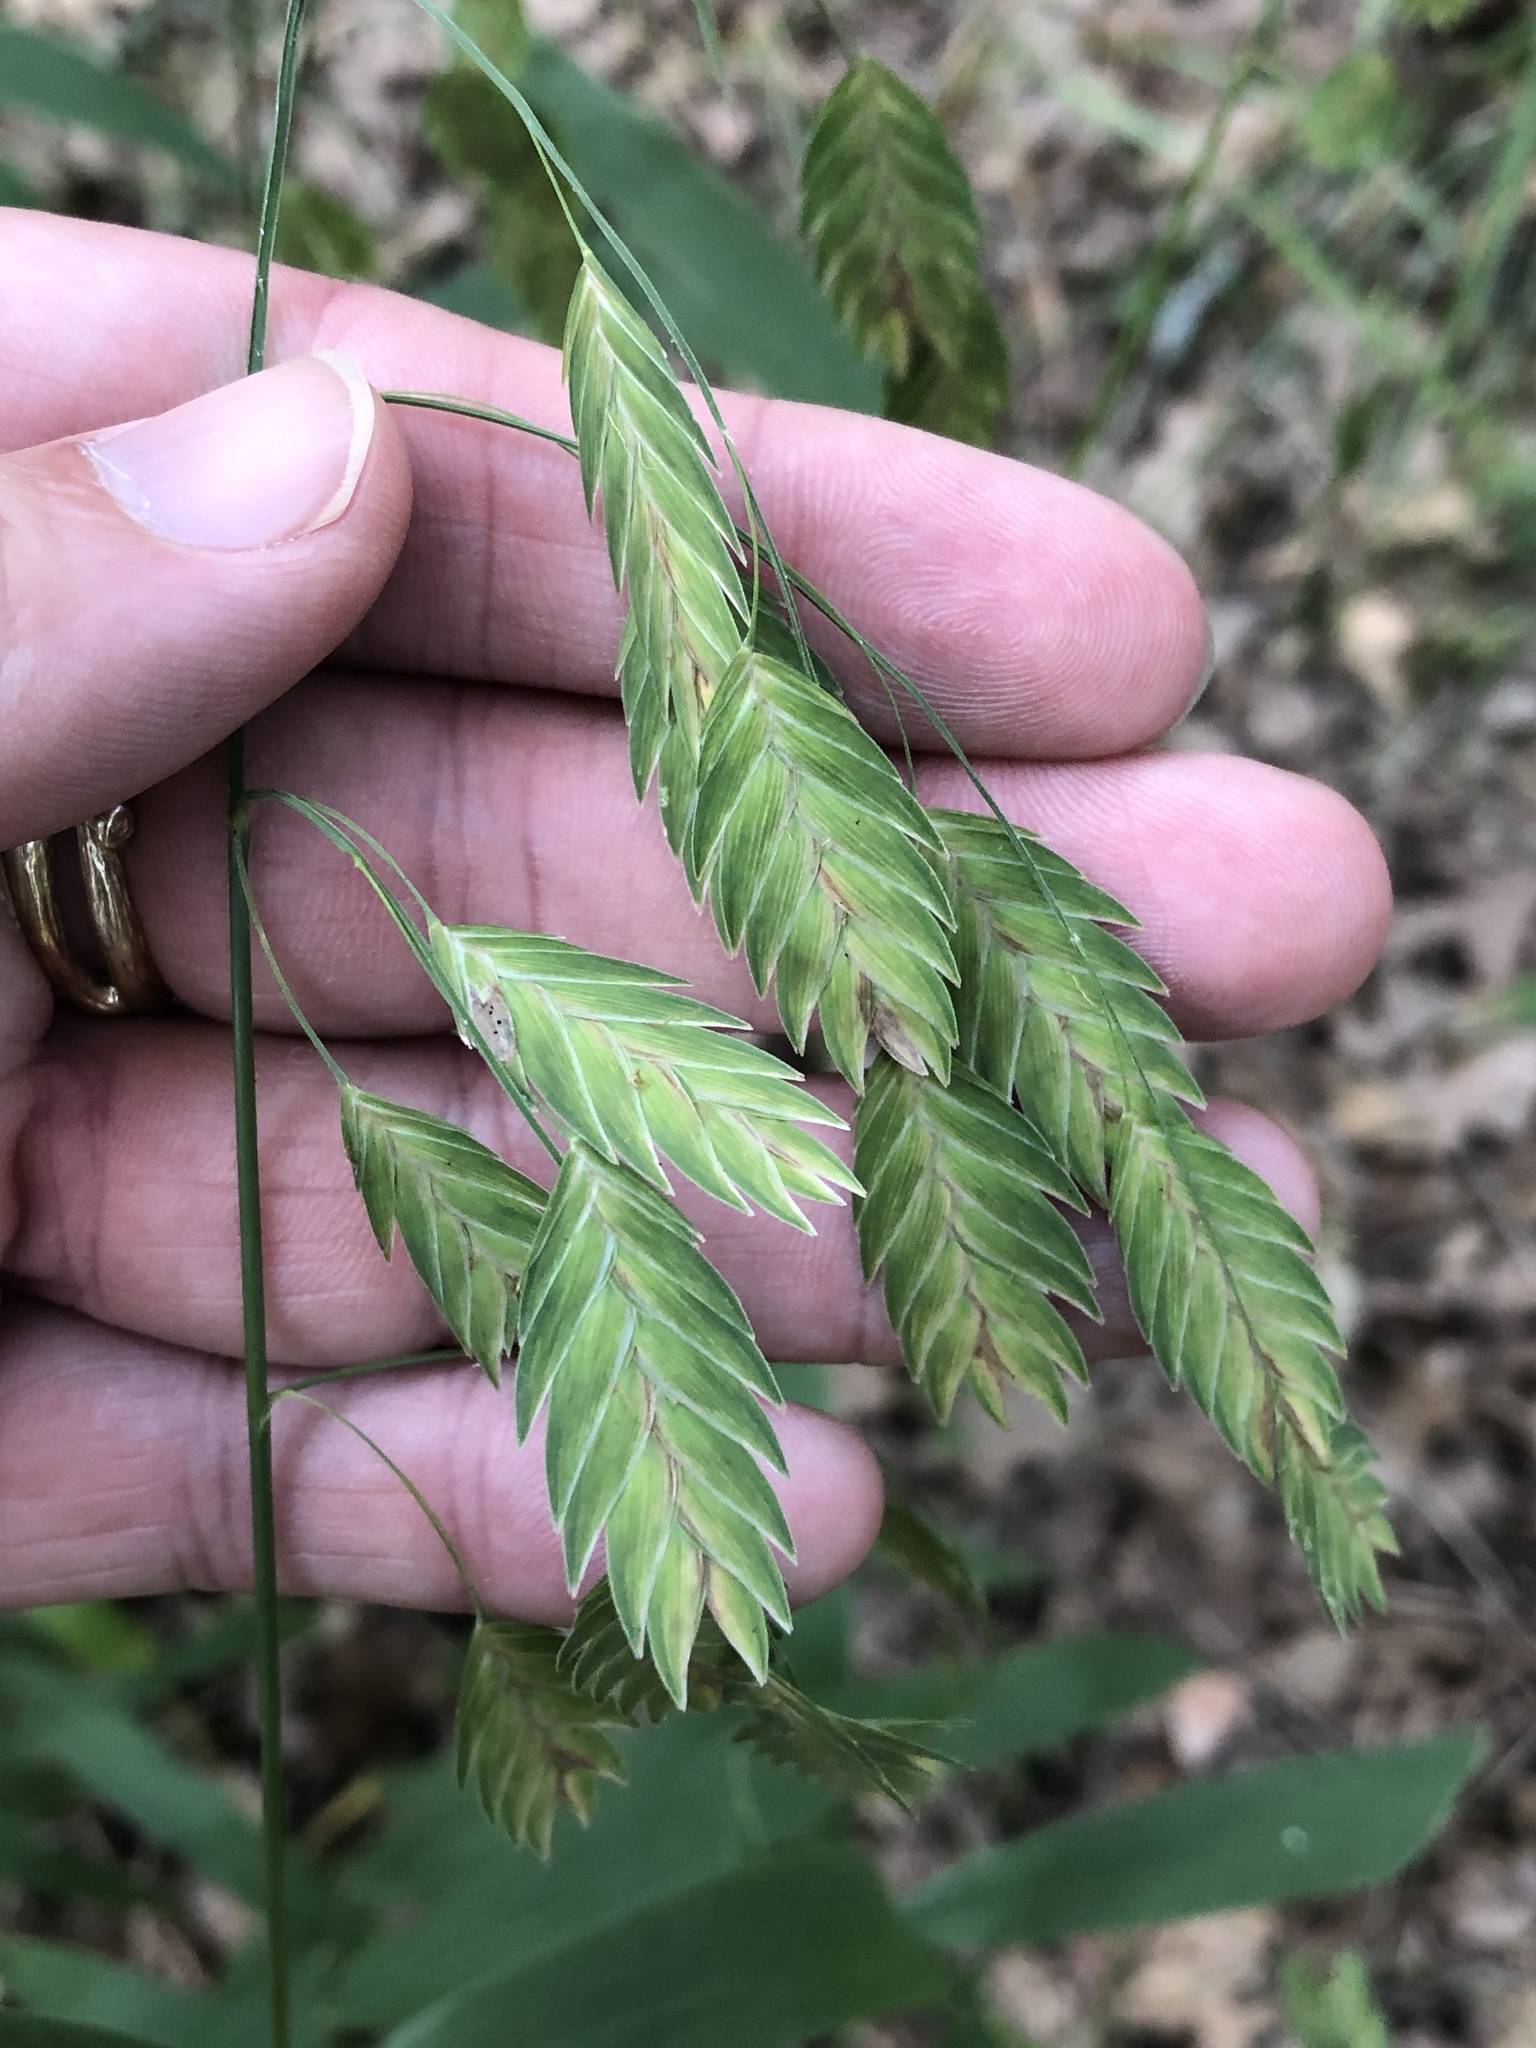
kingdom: Plantae
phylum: Tracheophyta
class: Liliopsida
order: Poales
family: Poaceae
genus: Chasmanthium
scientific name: Chasmanthium latifolium
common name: Broad-leaved chasmanthium
